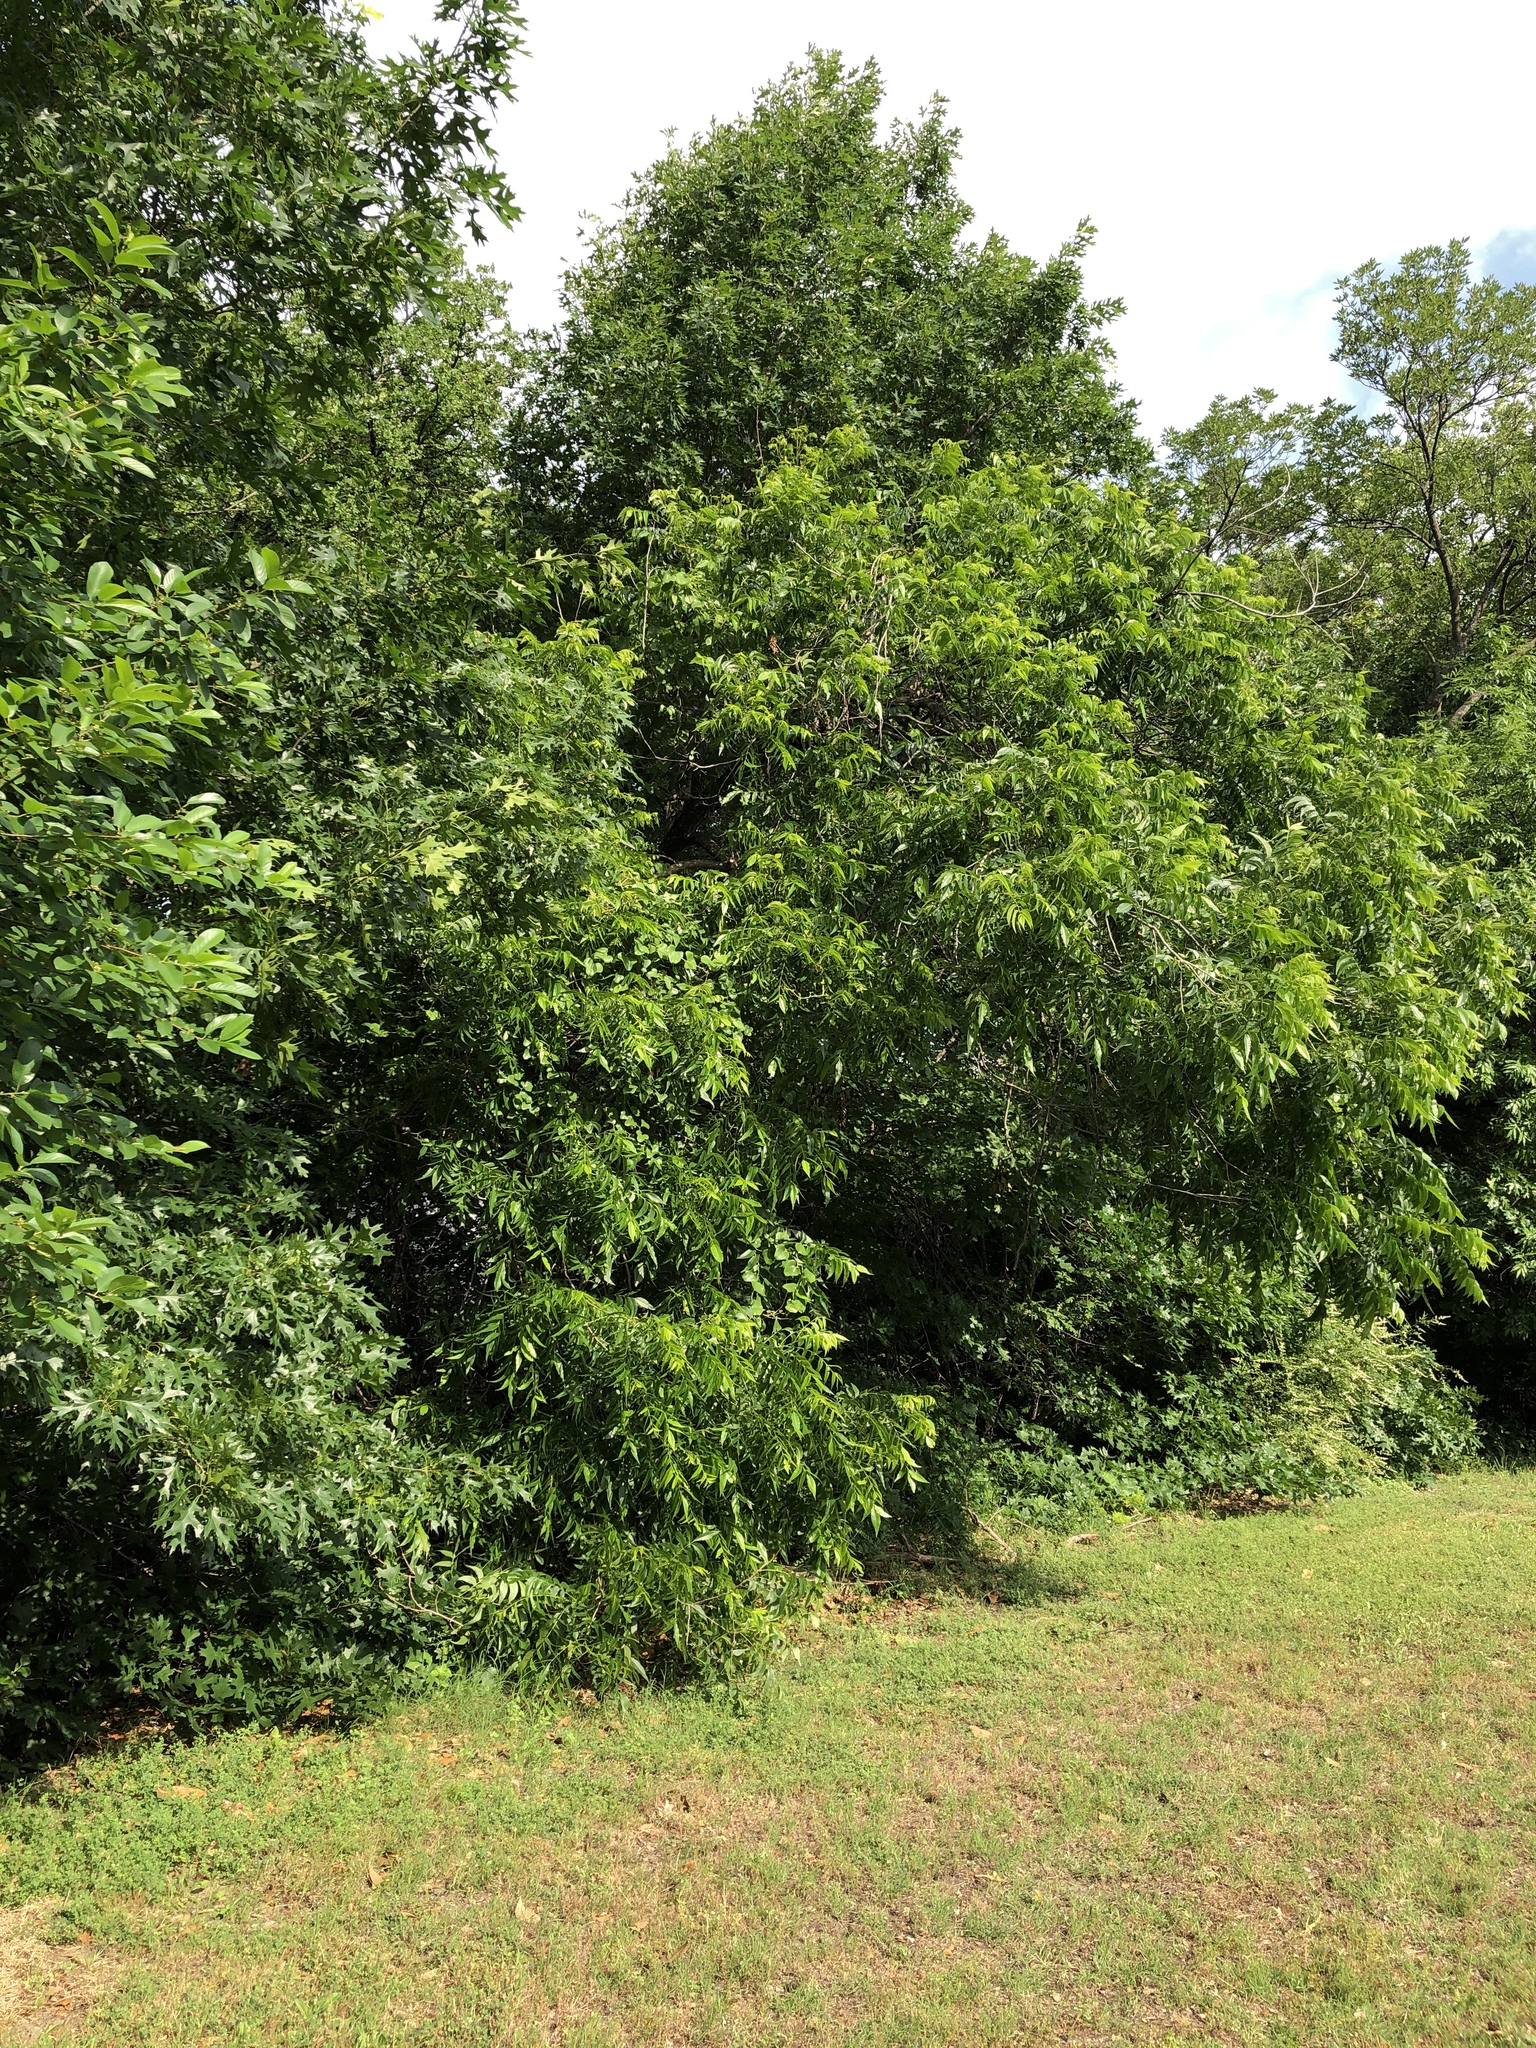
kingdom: Plantae
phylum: Tracheophyta
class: Magnoliopsida
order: Fagales
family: Juglandaceae
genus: Carya
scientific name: Carya illinoinensis
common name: Pecan
